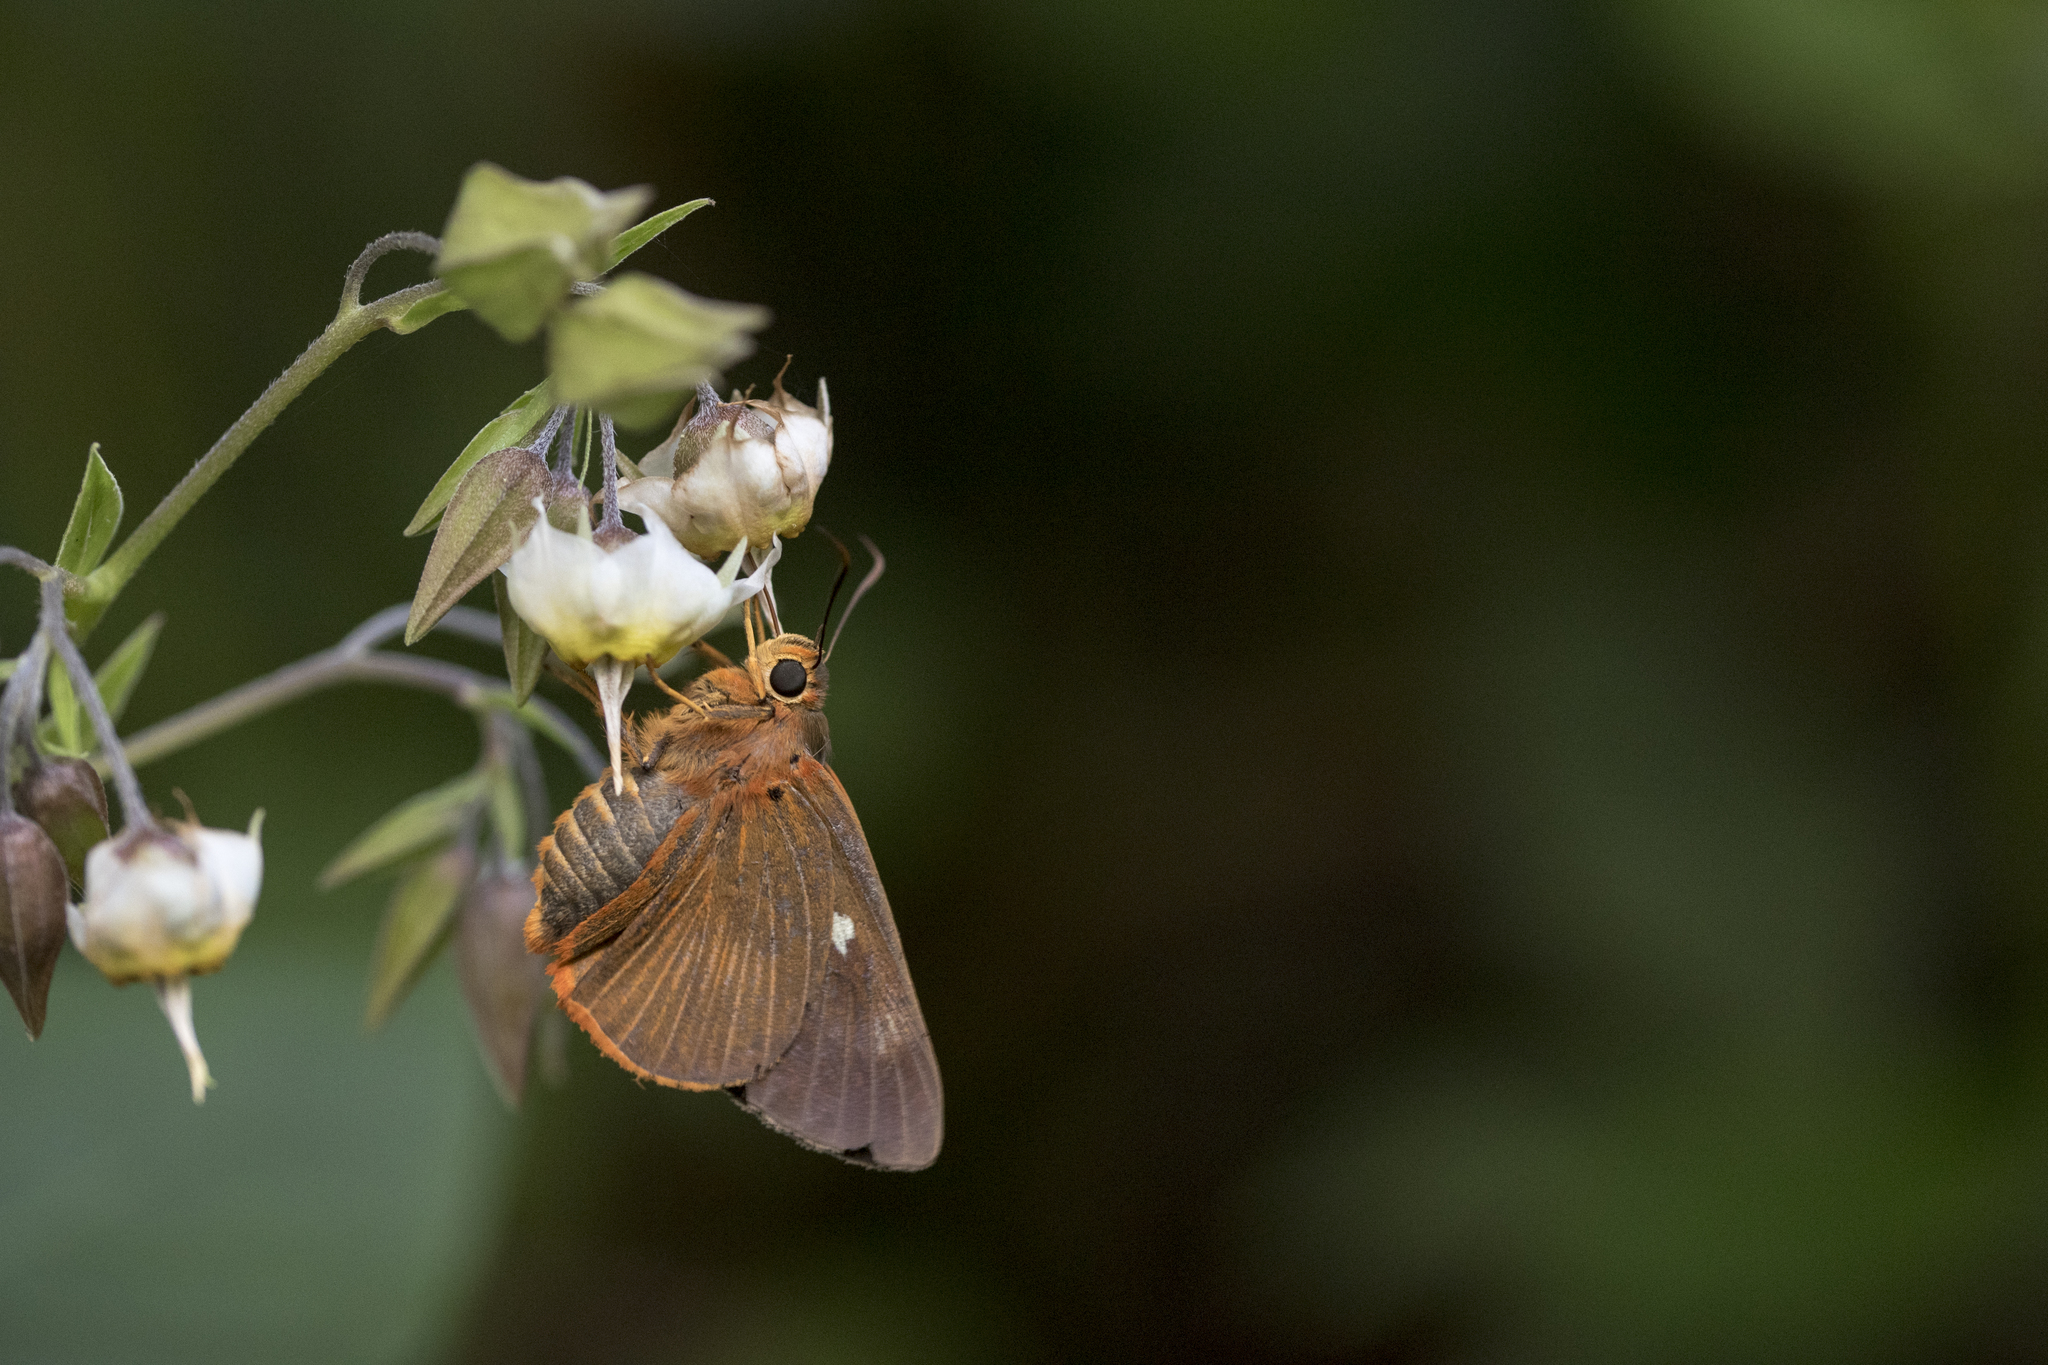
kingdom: Animalia
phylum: Arthropoda
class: Insecta
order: Lepidoptera
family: Hesperiidae
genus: Bibasis
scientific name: Bibasis jaina
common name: Common orange awlet
